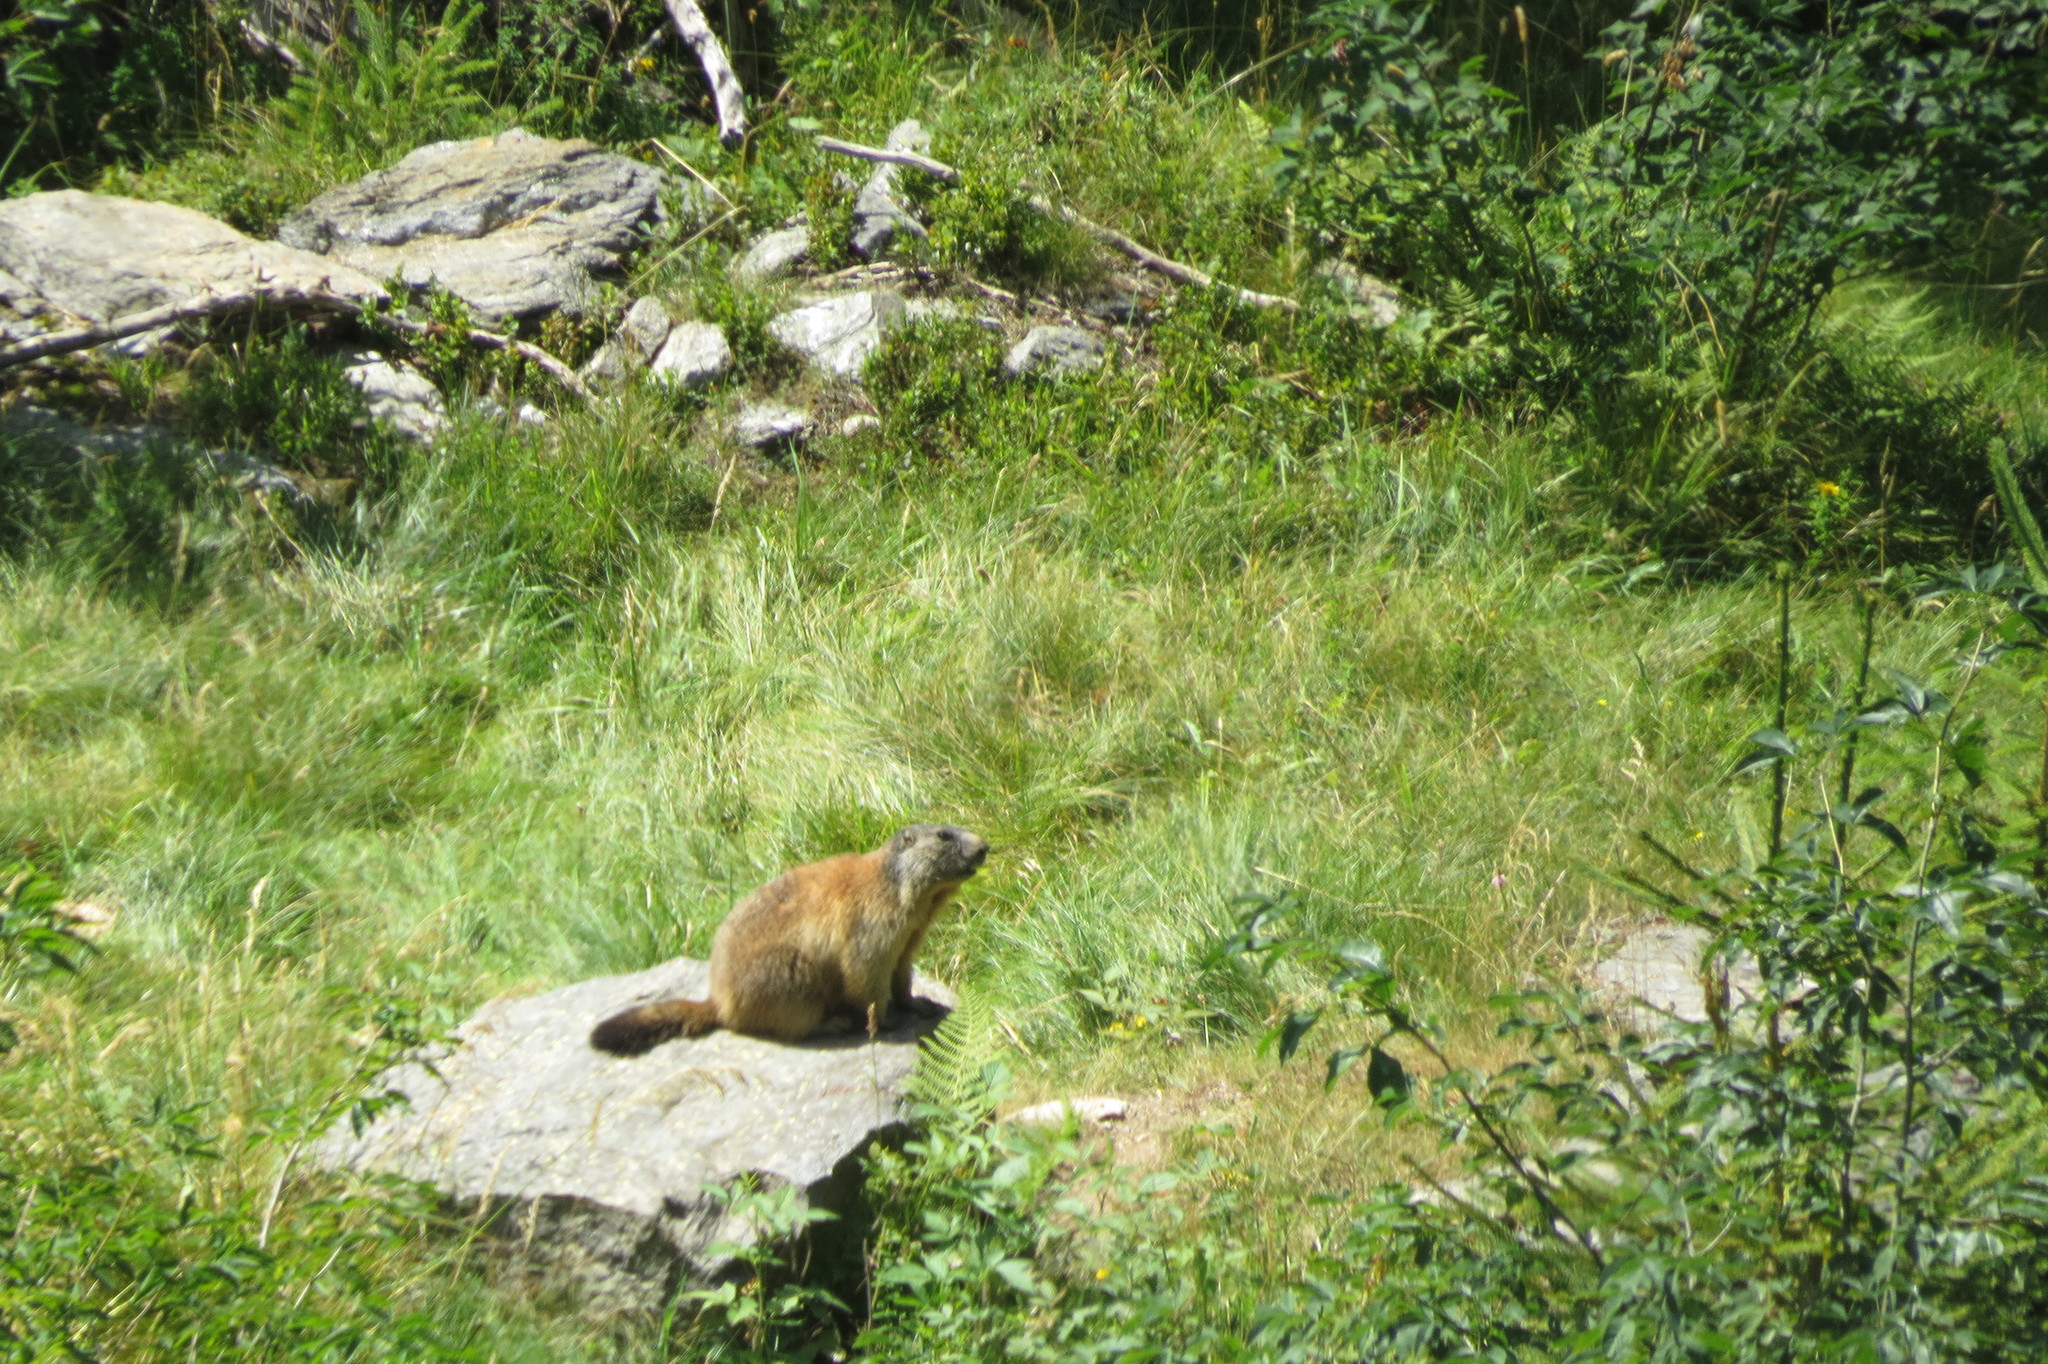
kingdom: Animalia
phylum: Arthropoda
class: Insecta
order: Lepidoptera
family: Nymphalidae
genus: Speyeria
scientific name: Speyeria aglaja
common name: Dark green fritillary
